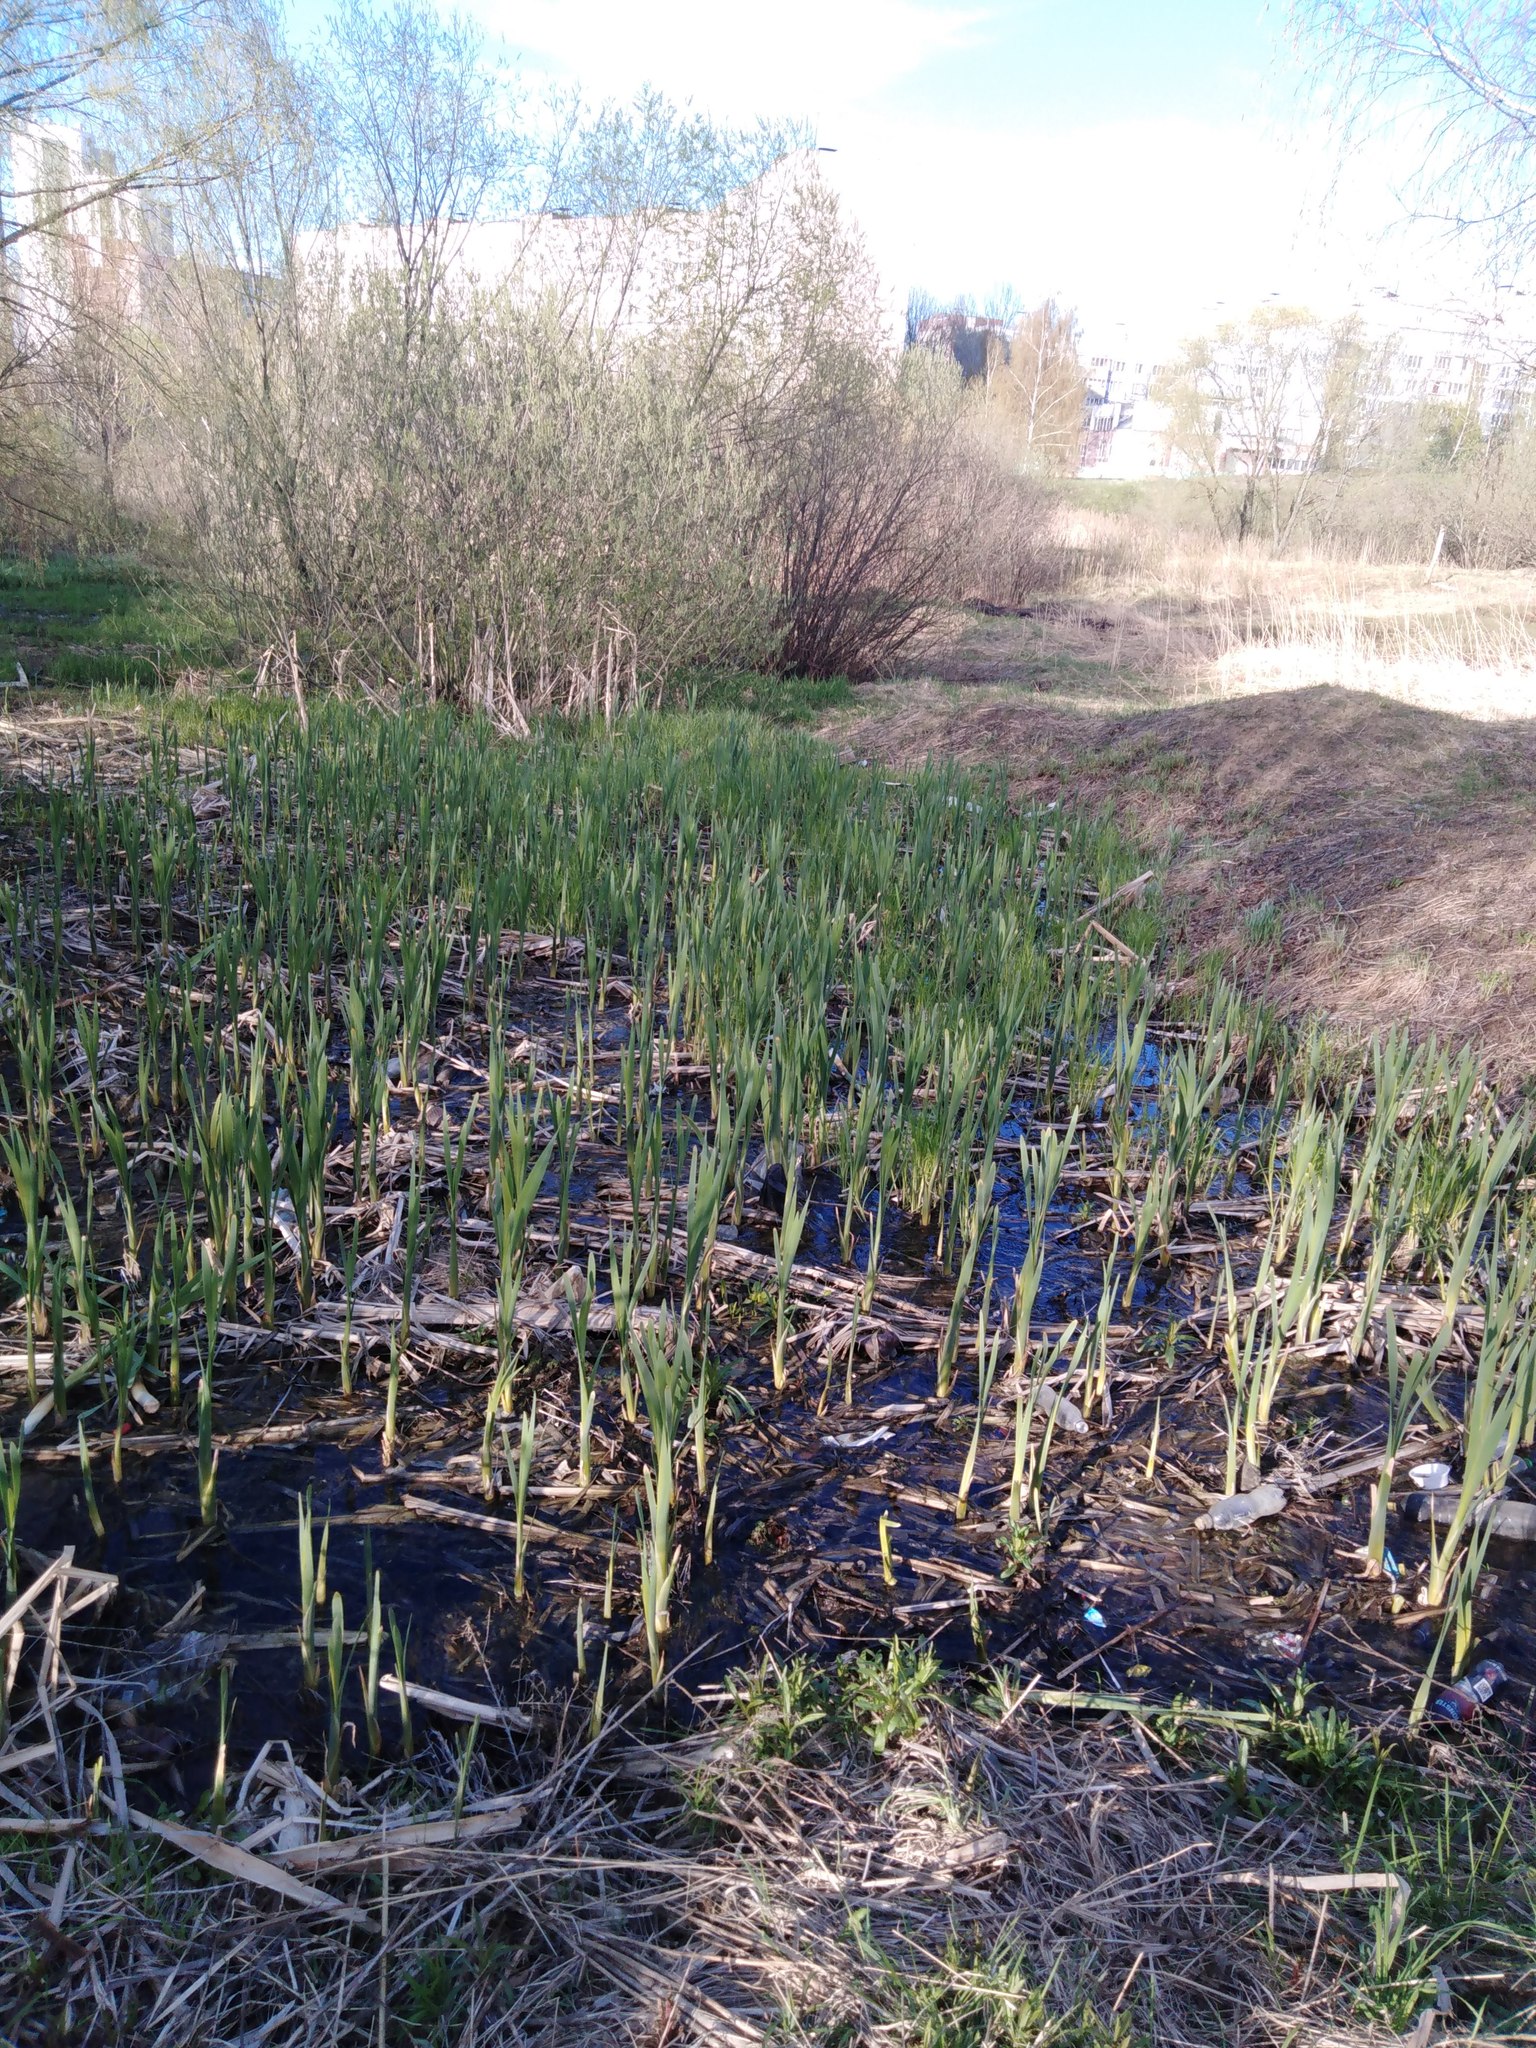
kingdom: Plantae
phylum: Tracheophyta
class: Liliopsida
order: Poales
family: Typhaceae
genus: Typha
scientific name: Typha latifolia
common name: Broadleaf cattail
